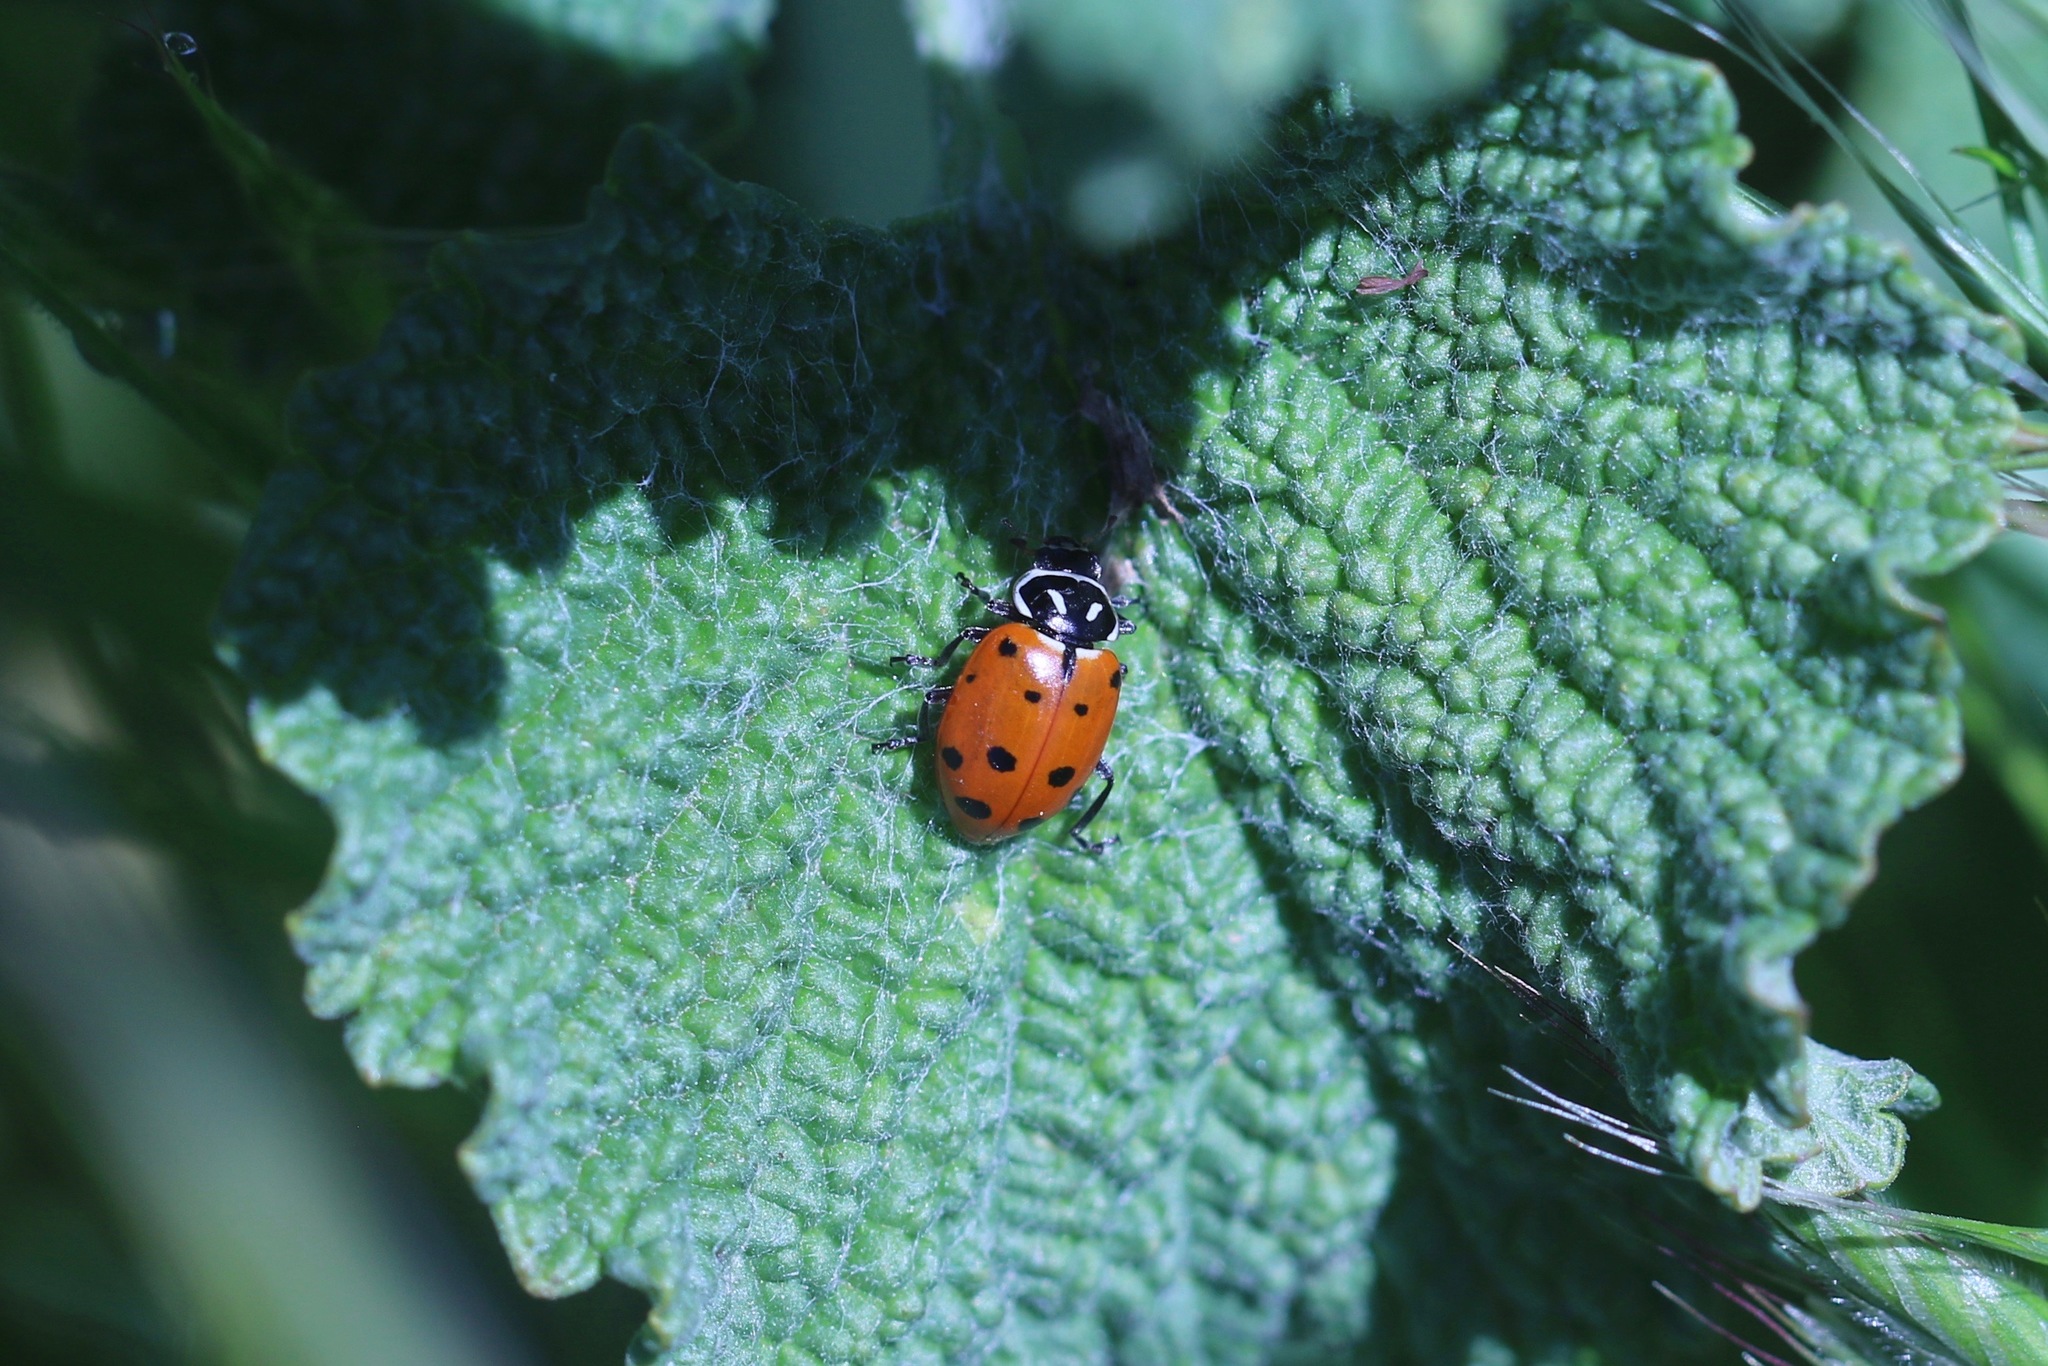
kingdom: Animalia
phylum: Arthropoda
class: Insecta
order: Coleoptera
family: Coccinellidae
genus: Hippodamia
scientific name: Hippodamia convergens
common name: Convergent lady beetle
